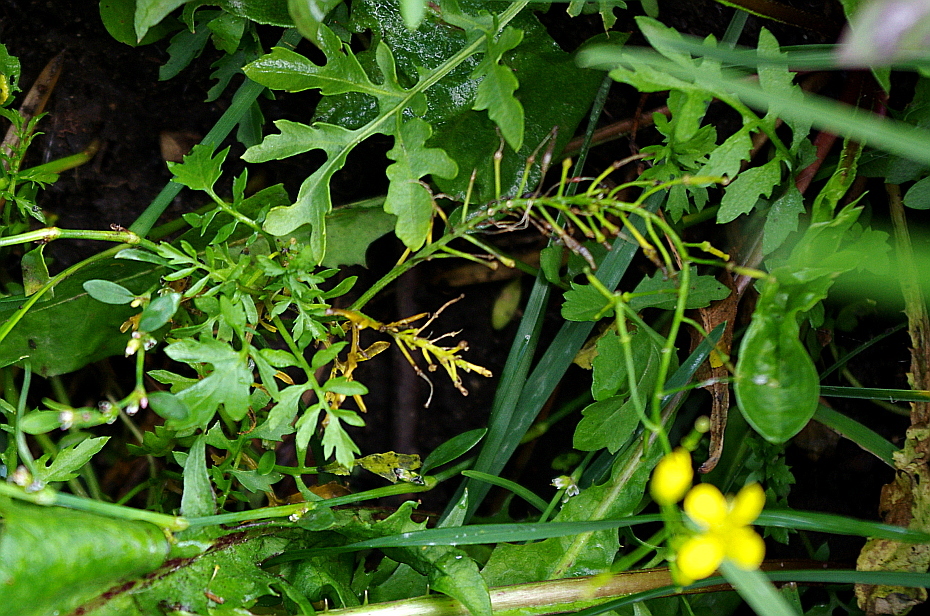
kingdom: Plantae
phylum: Tracheophyta
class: Magnoliopsida
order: Brassicales
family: Brassicaceae
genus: Rorippa
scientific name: Rorippa sylvestris
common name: Creeping yellowcress
